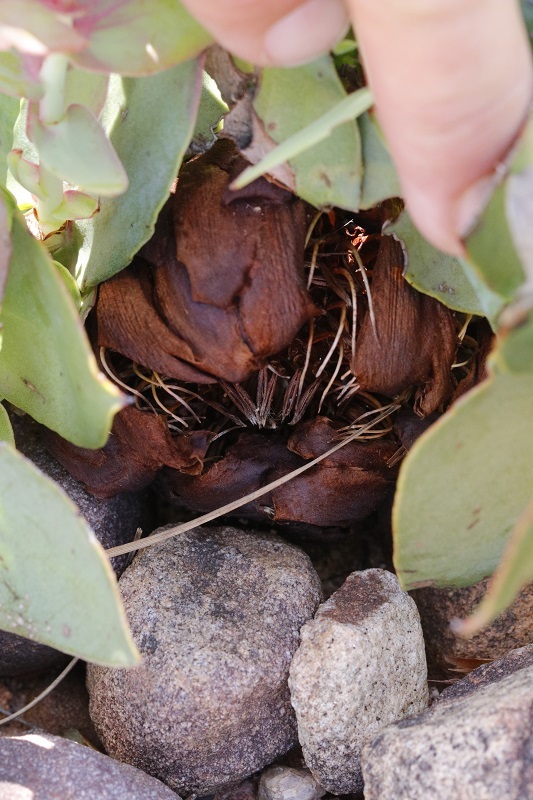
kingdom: Plantae
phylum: Tracheophyta
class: Magnoliopsida
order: Proteales
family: Proteaceae
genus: Protea
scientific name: Protea amplexicaulis
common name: Clasping-leaf sugarbush
